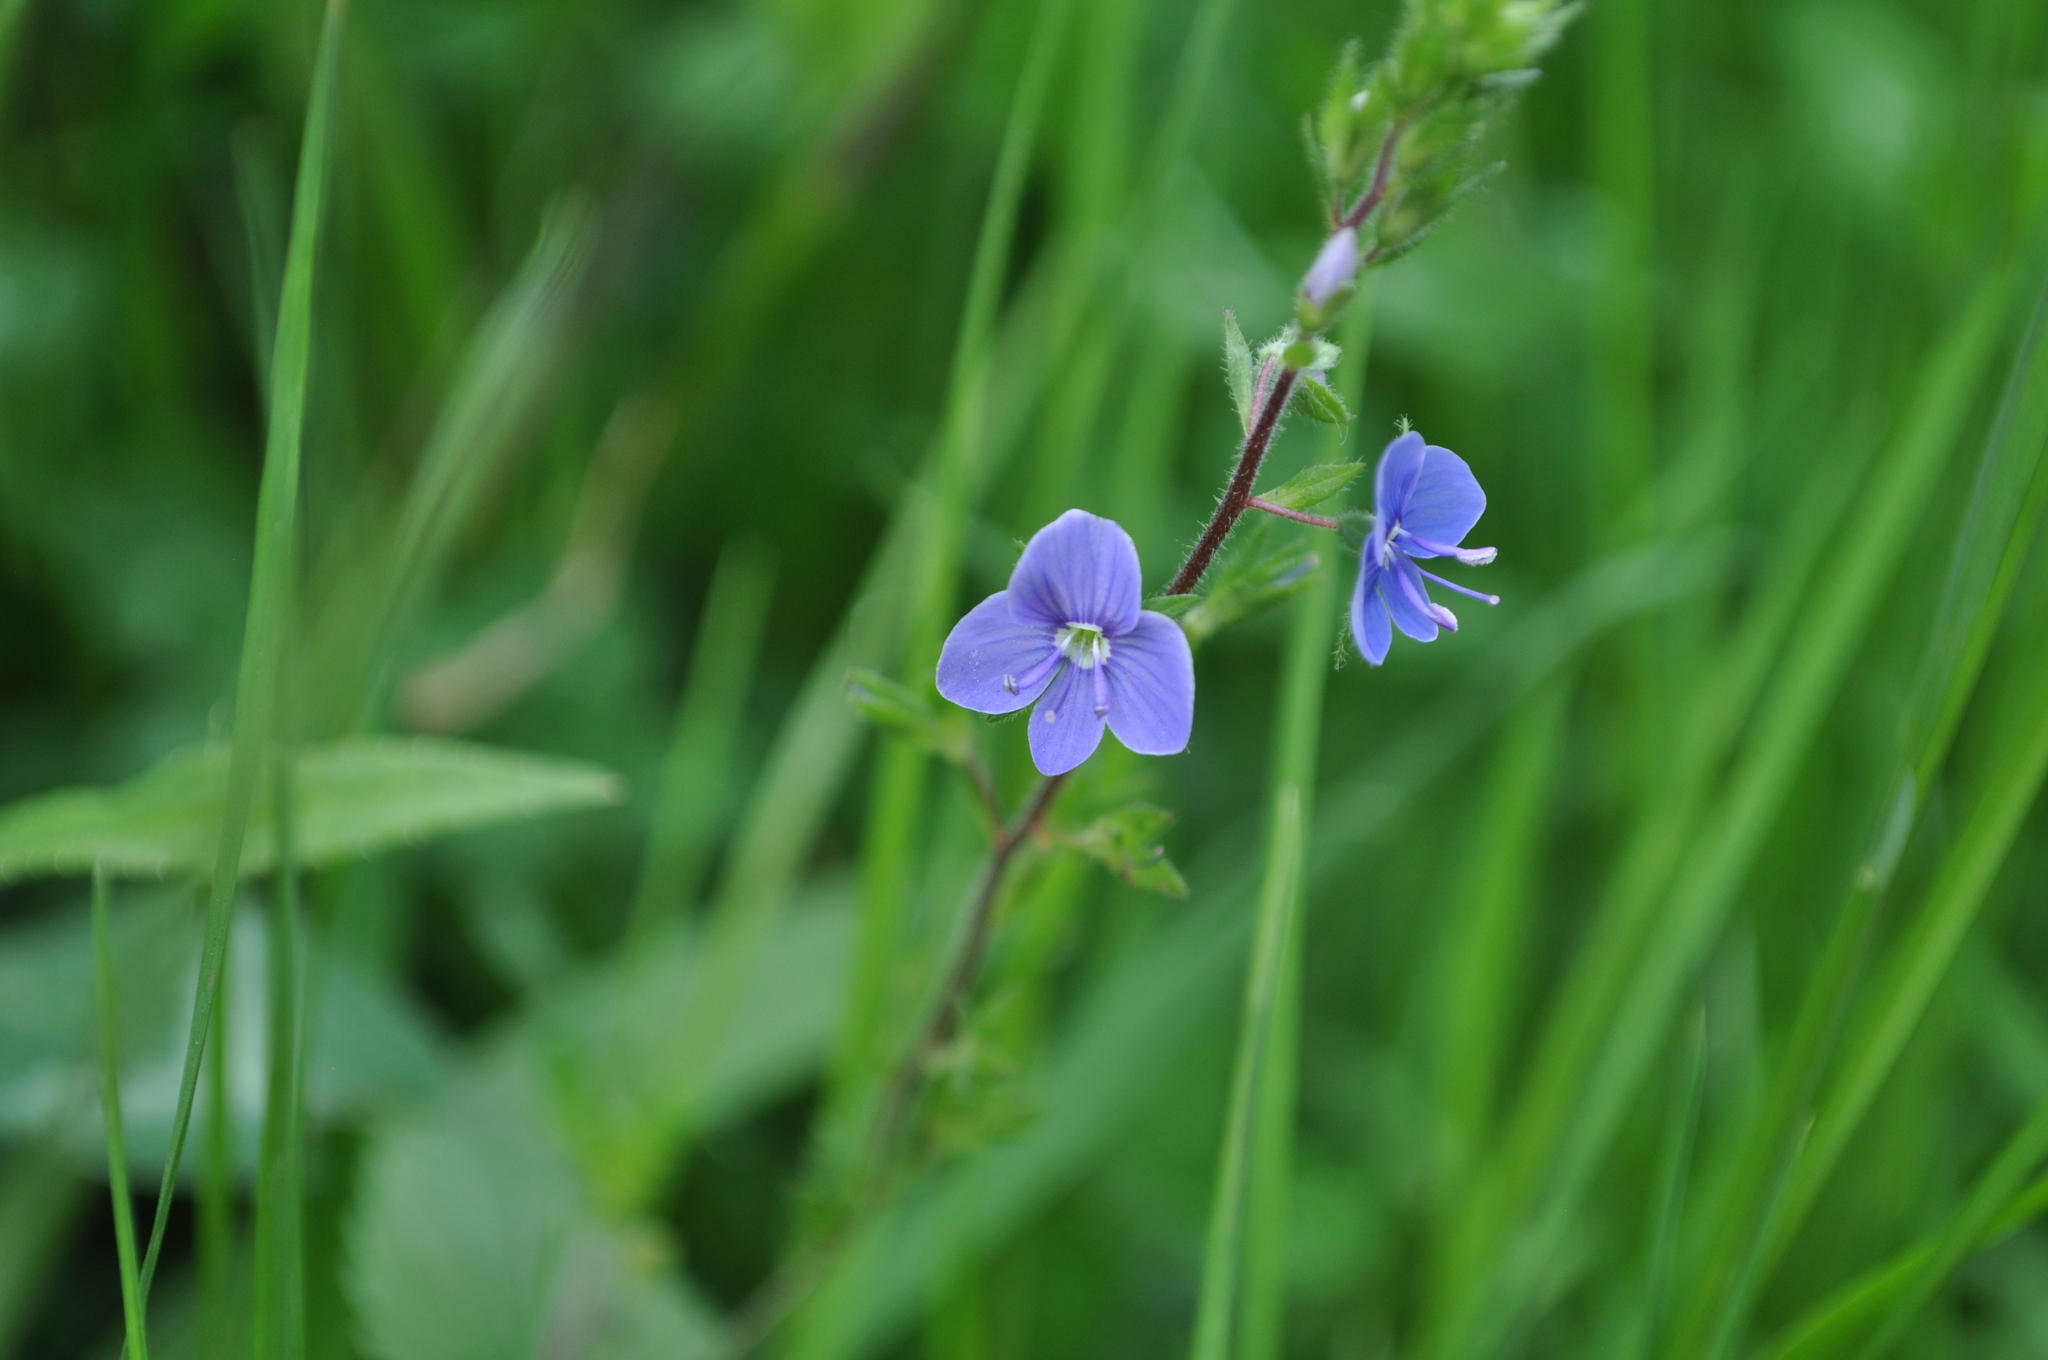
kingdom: Plantae
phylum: Tracheophyta
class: Magnoliopsida
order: Lamiales
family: Plantaginaceae
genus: Veronica
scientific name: Veronica chamaedrys
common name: Germander speedwell
